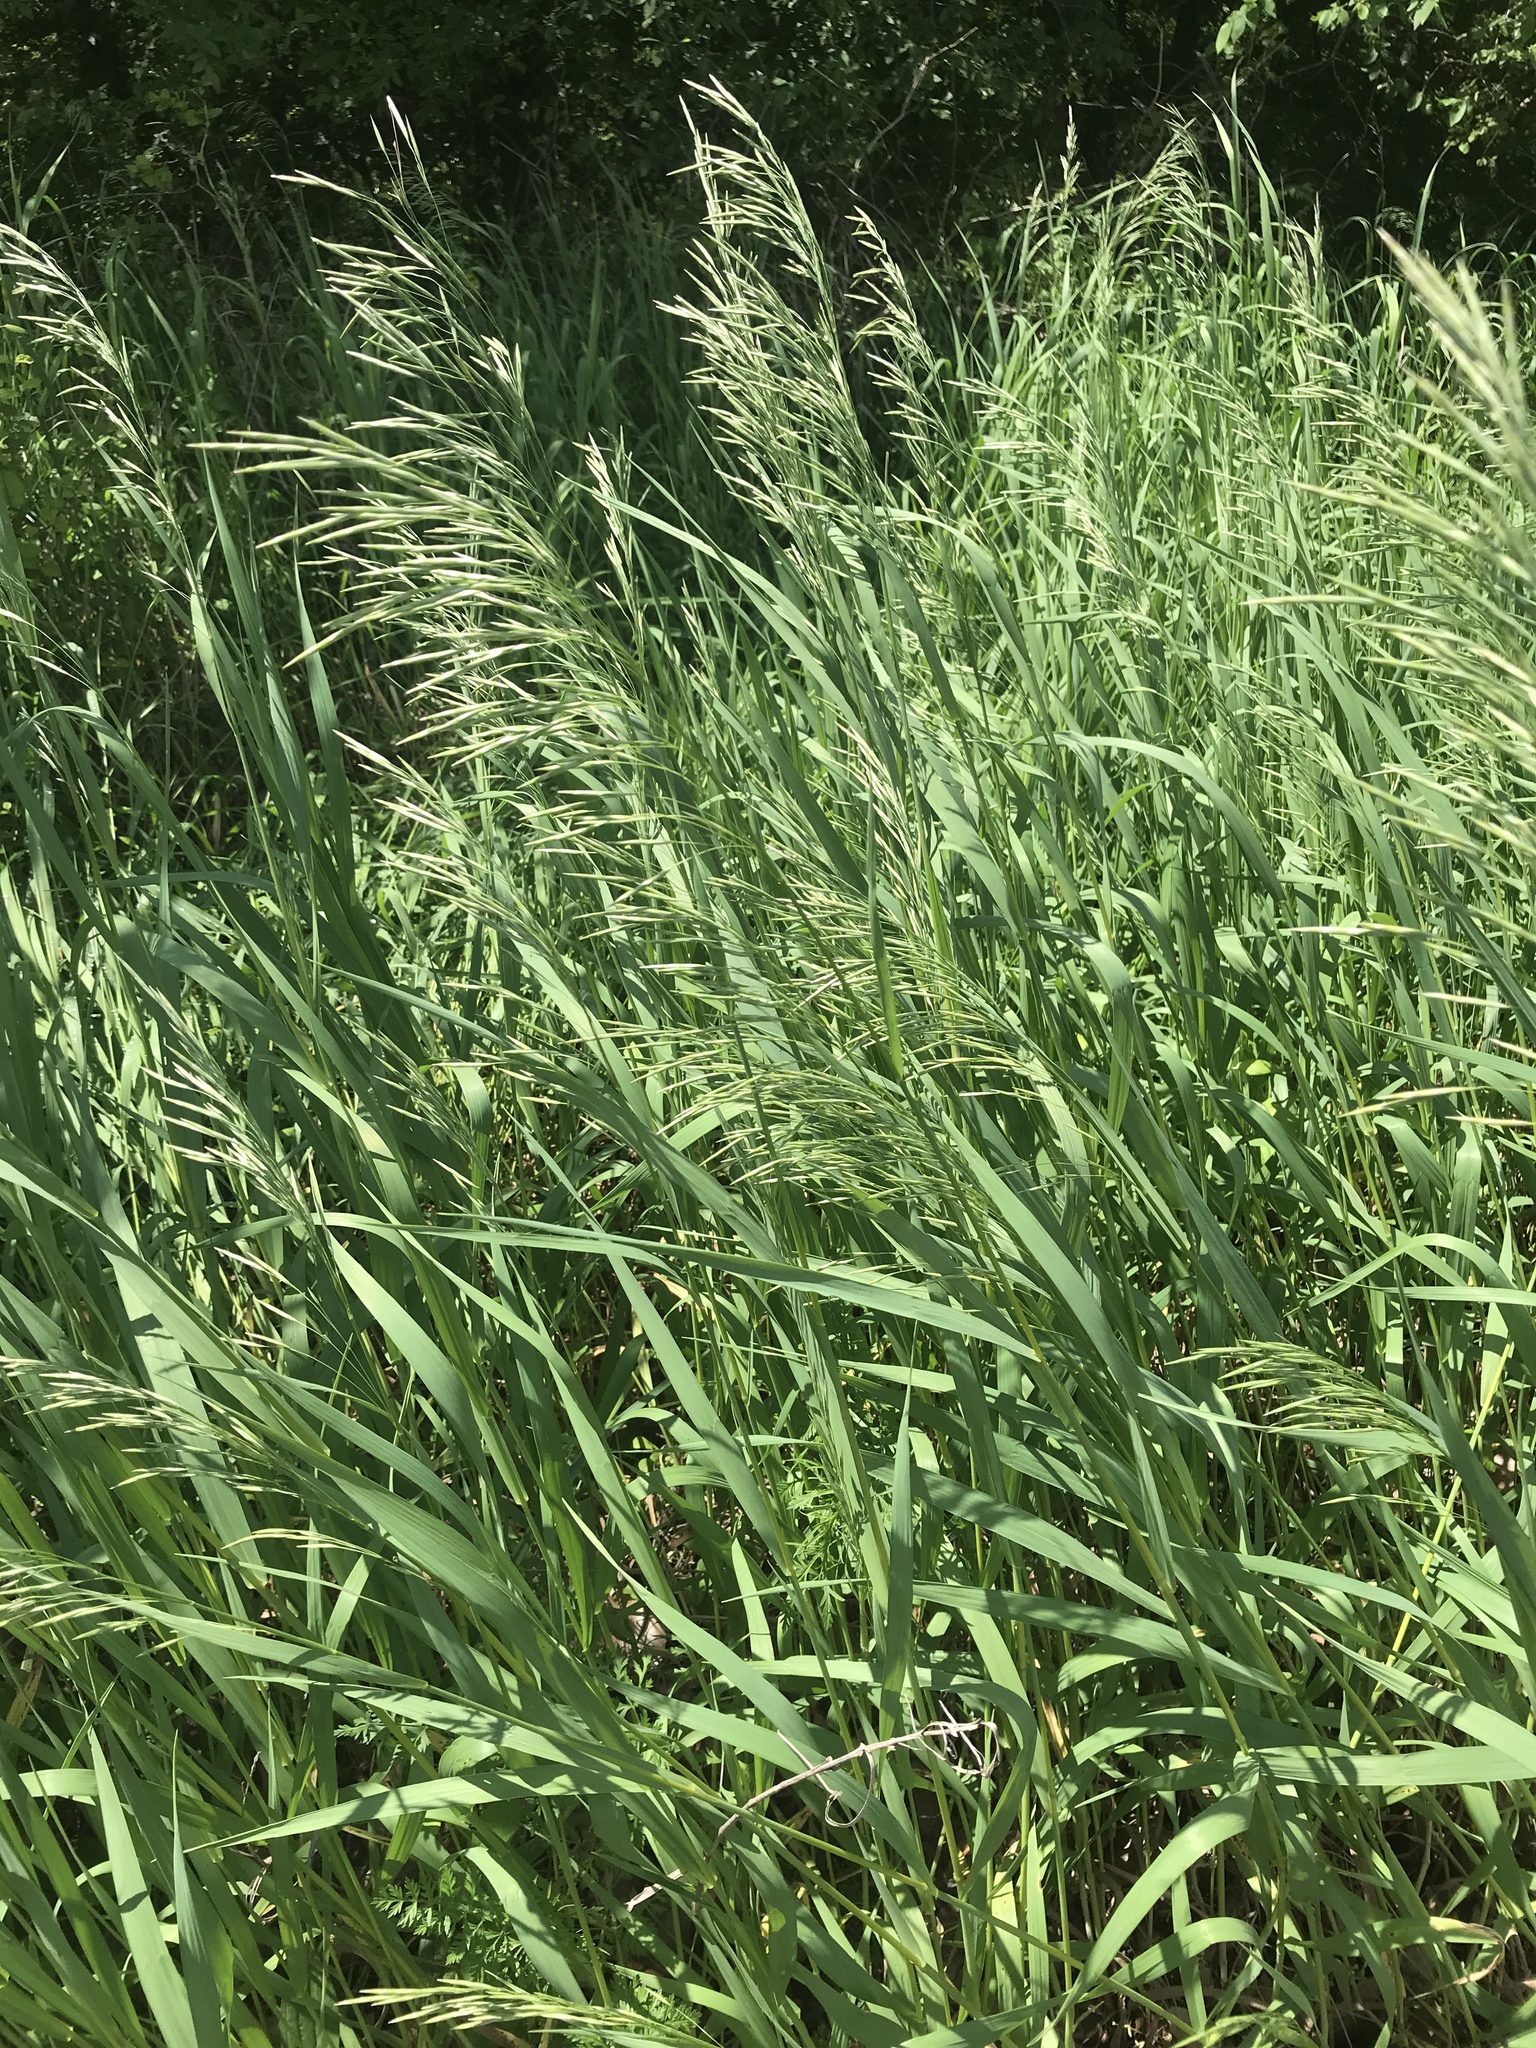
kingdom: Plantae
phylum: Tracheophyta
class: Liliopsida
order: Poales
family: Poaceae
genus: Bromus
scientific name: Bromus inermis
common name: Smooth brome
